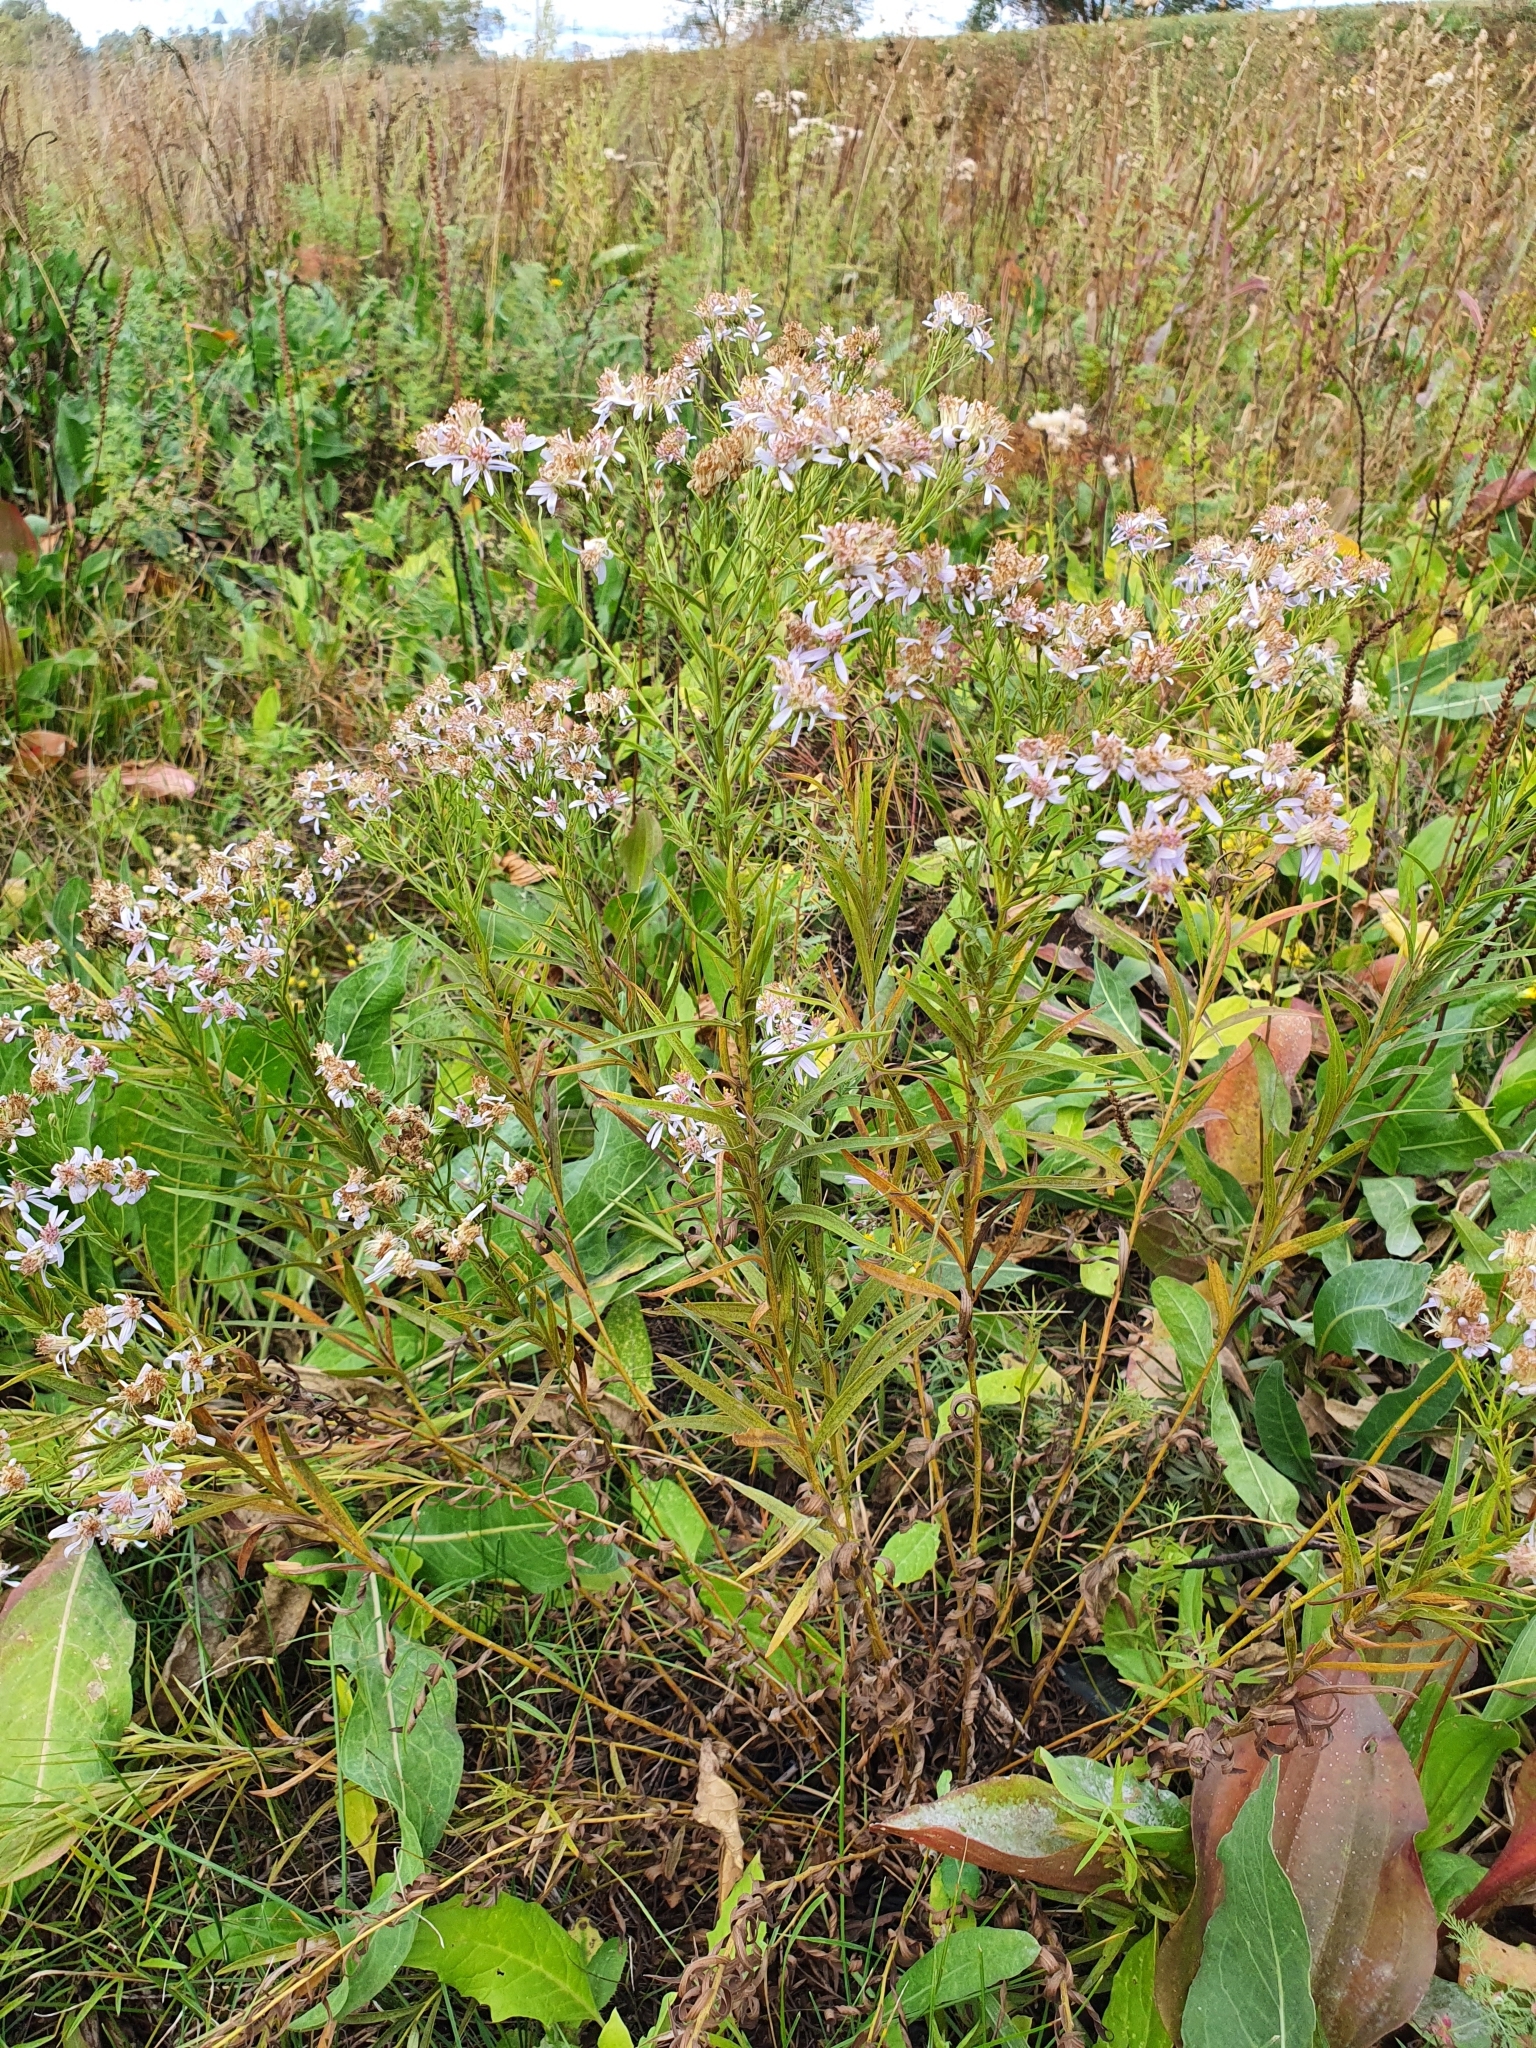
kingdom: Plantae
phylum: Tracheophyta
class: Magnoliopsida
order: Asterales
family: Asteraceae
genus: Galatella
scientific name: Galatella sedifolia
